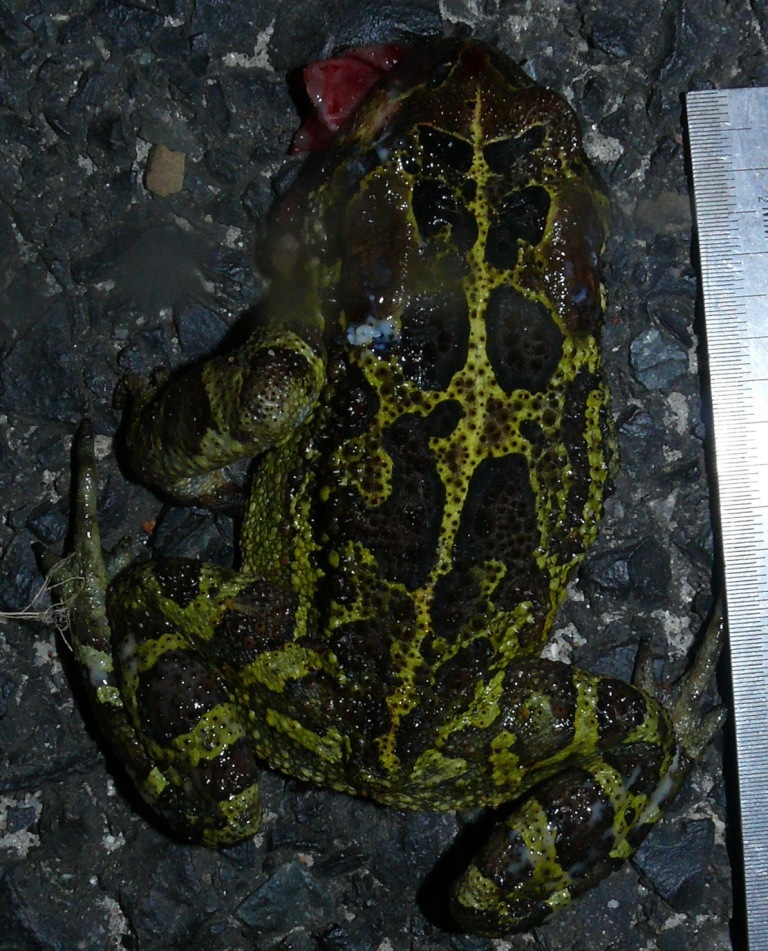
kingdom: Animalia
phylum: Chordata
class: Amphibia
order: Anura
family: Bufonidae
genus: Sclerophrys
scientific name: Sclerophrys pantherina
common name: Panther toad
